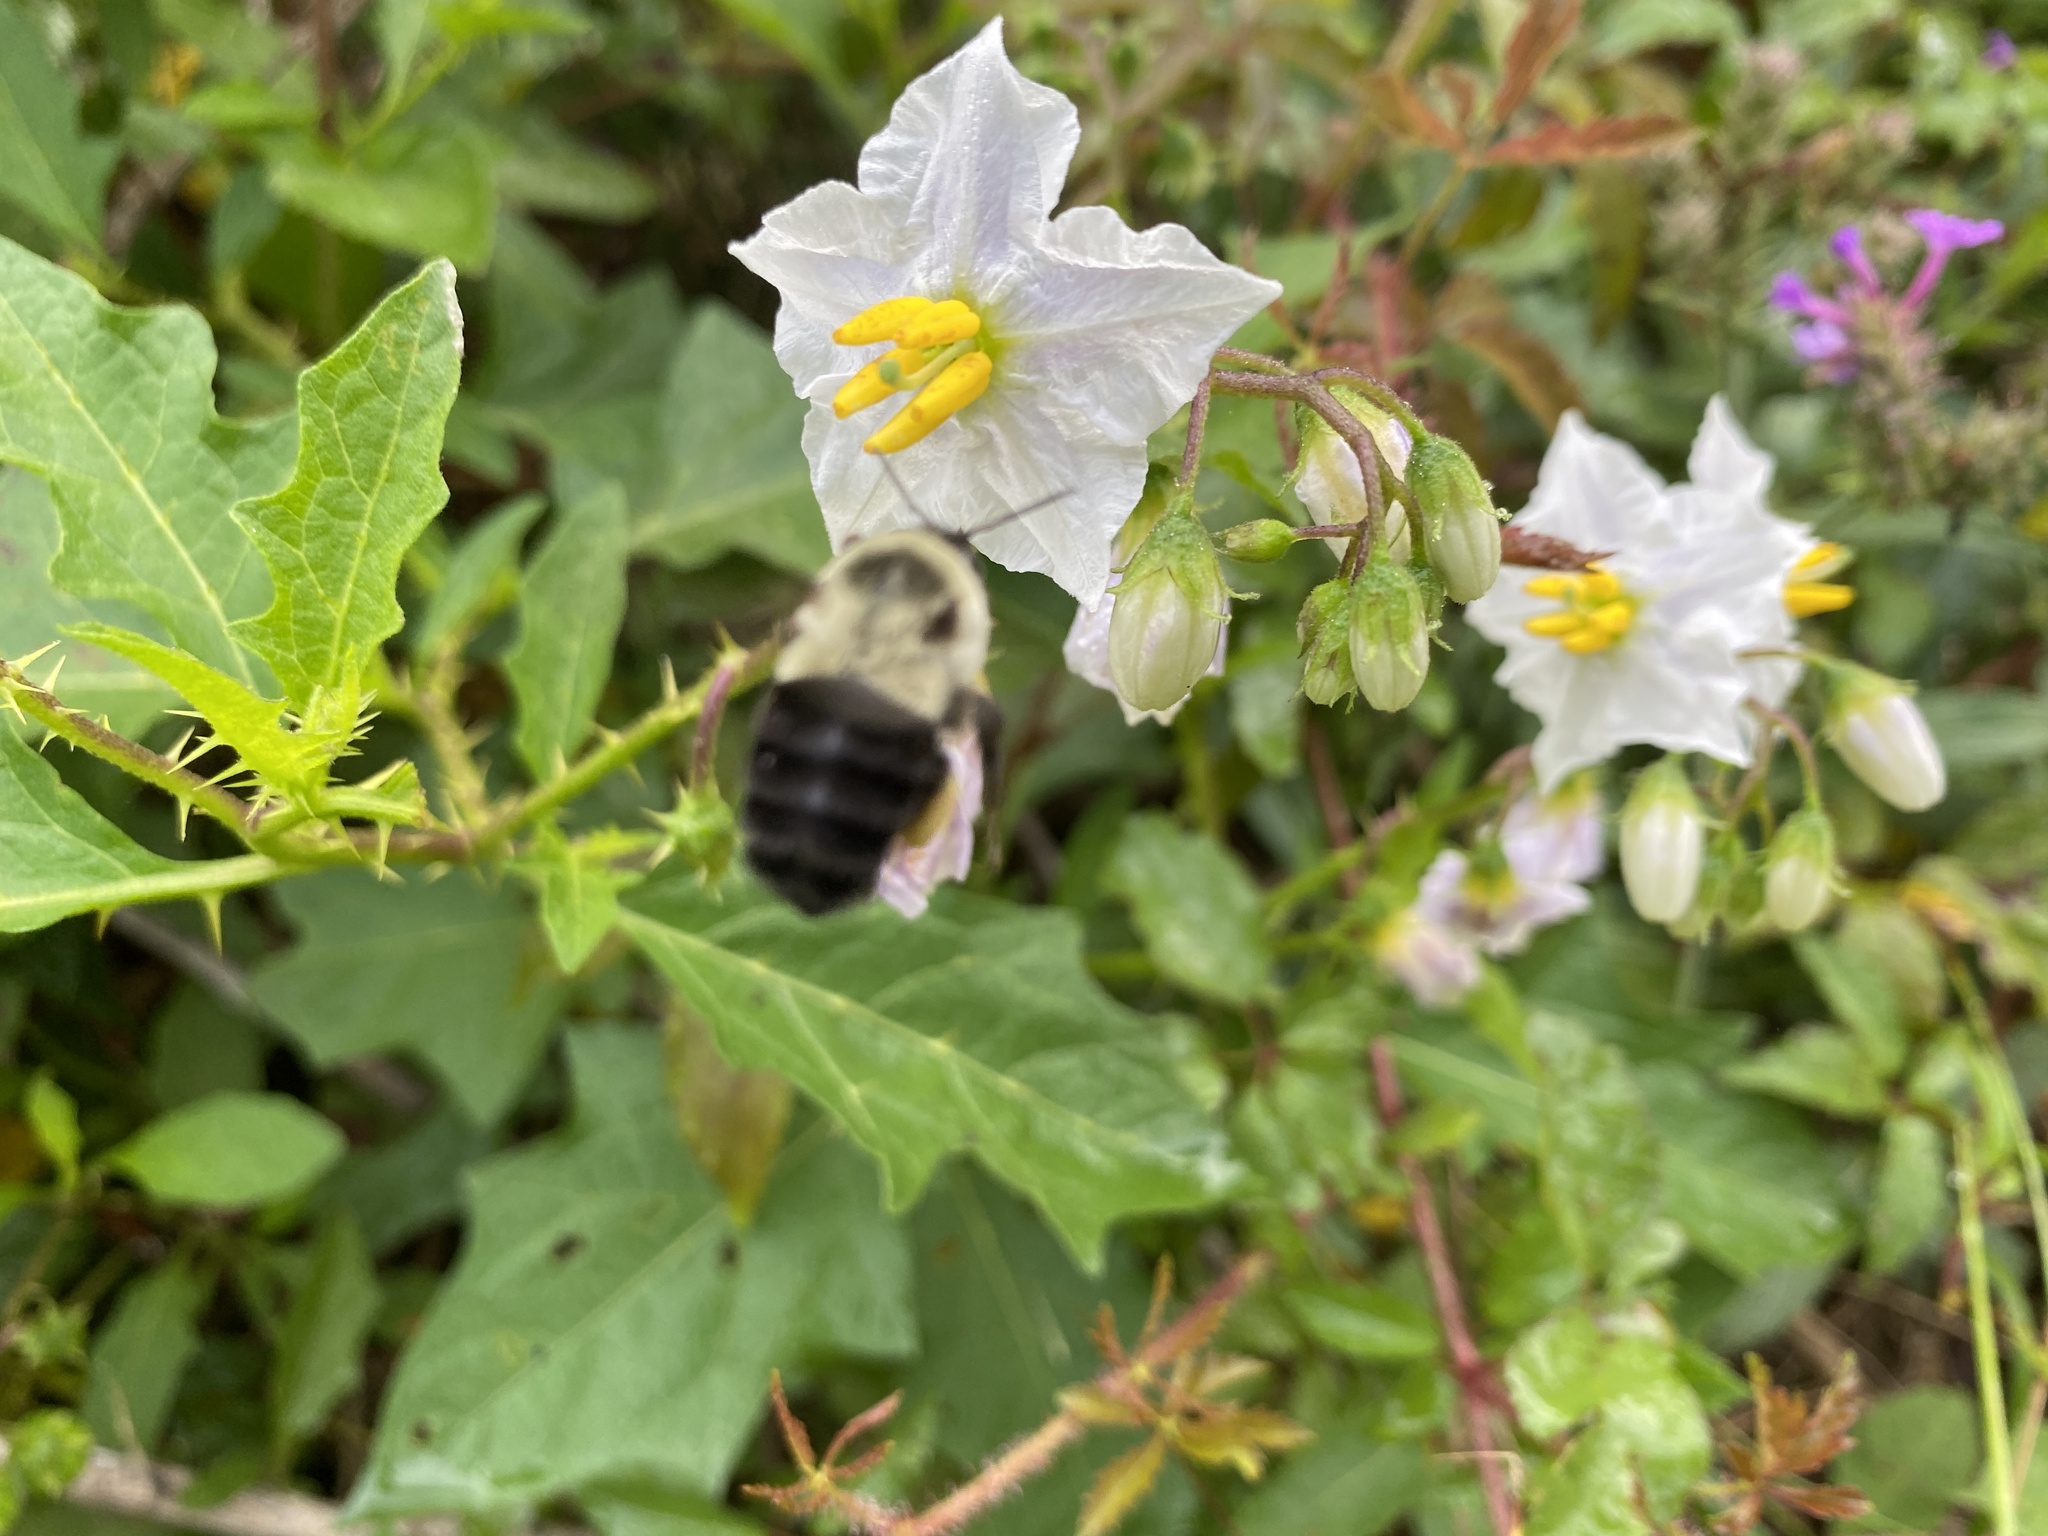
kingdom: Animalia
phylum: Arthropoda
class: Insecta
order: Hymenoptera
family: Apidae
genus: Bombus
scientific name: Bombus impatiens
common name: Common eastern bumble bee
